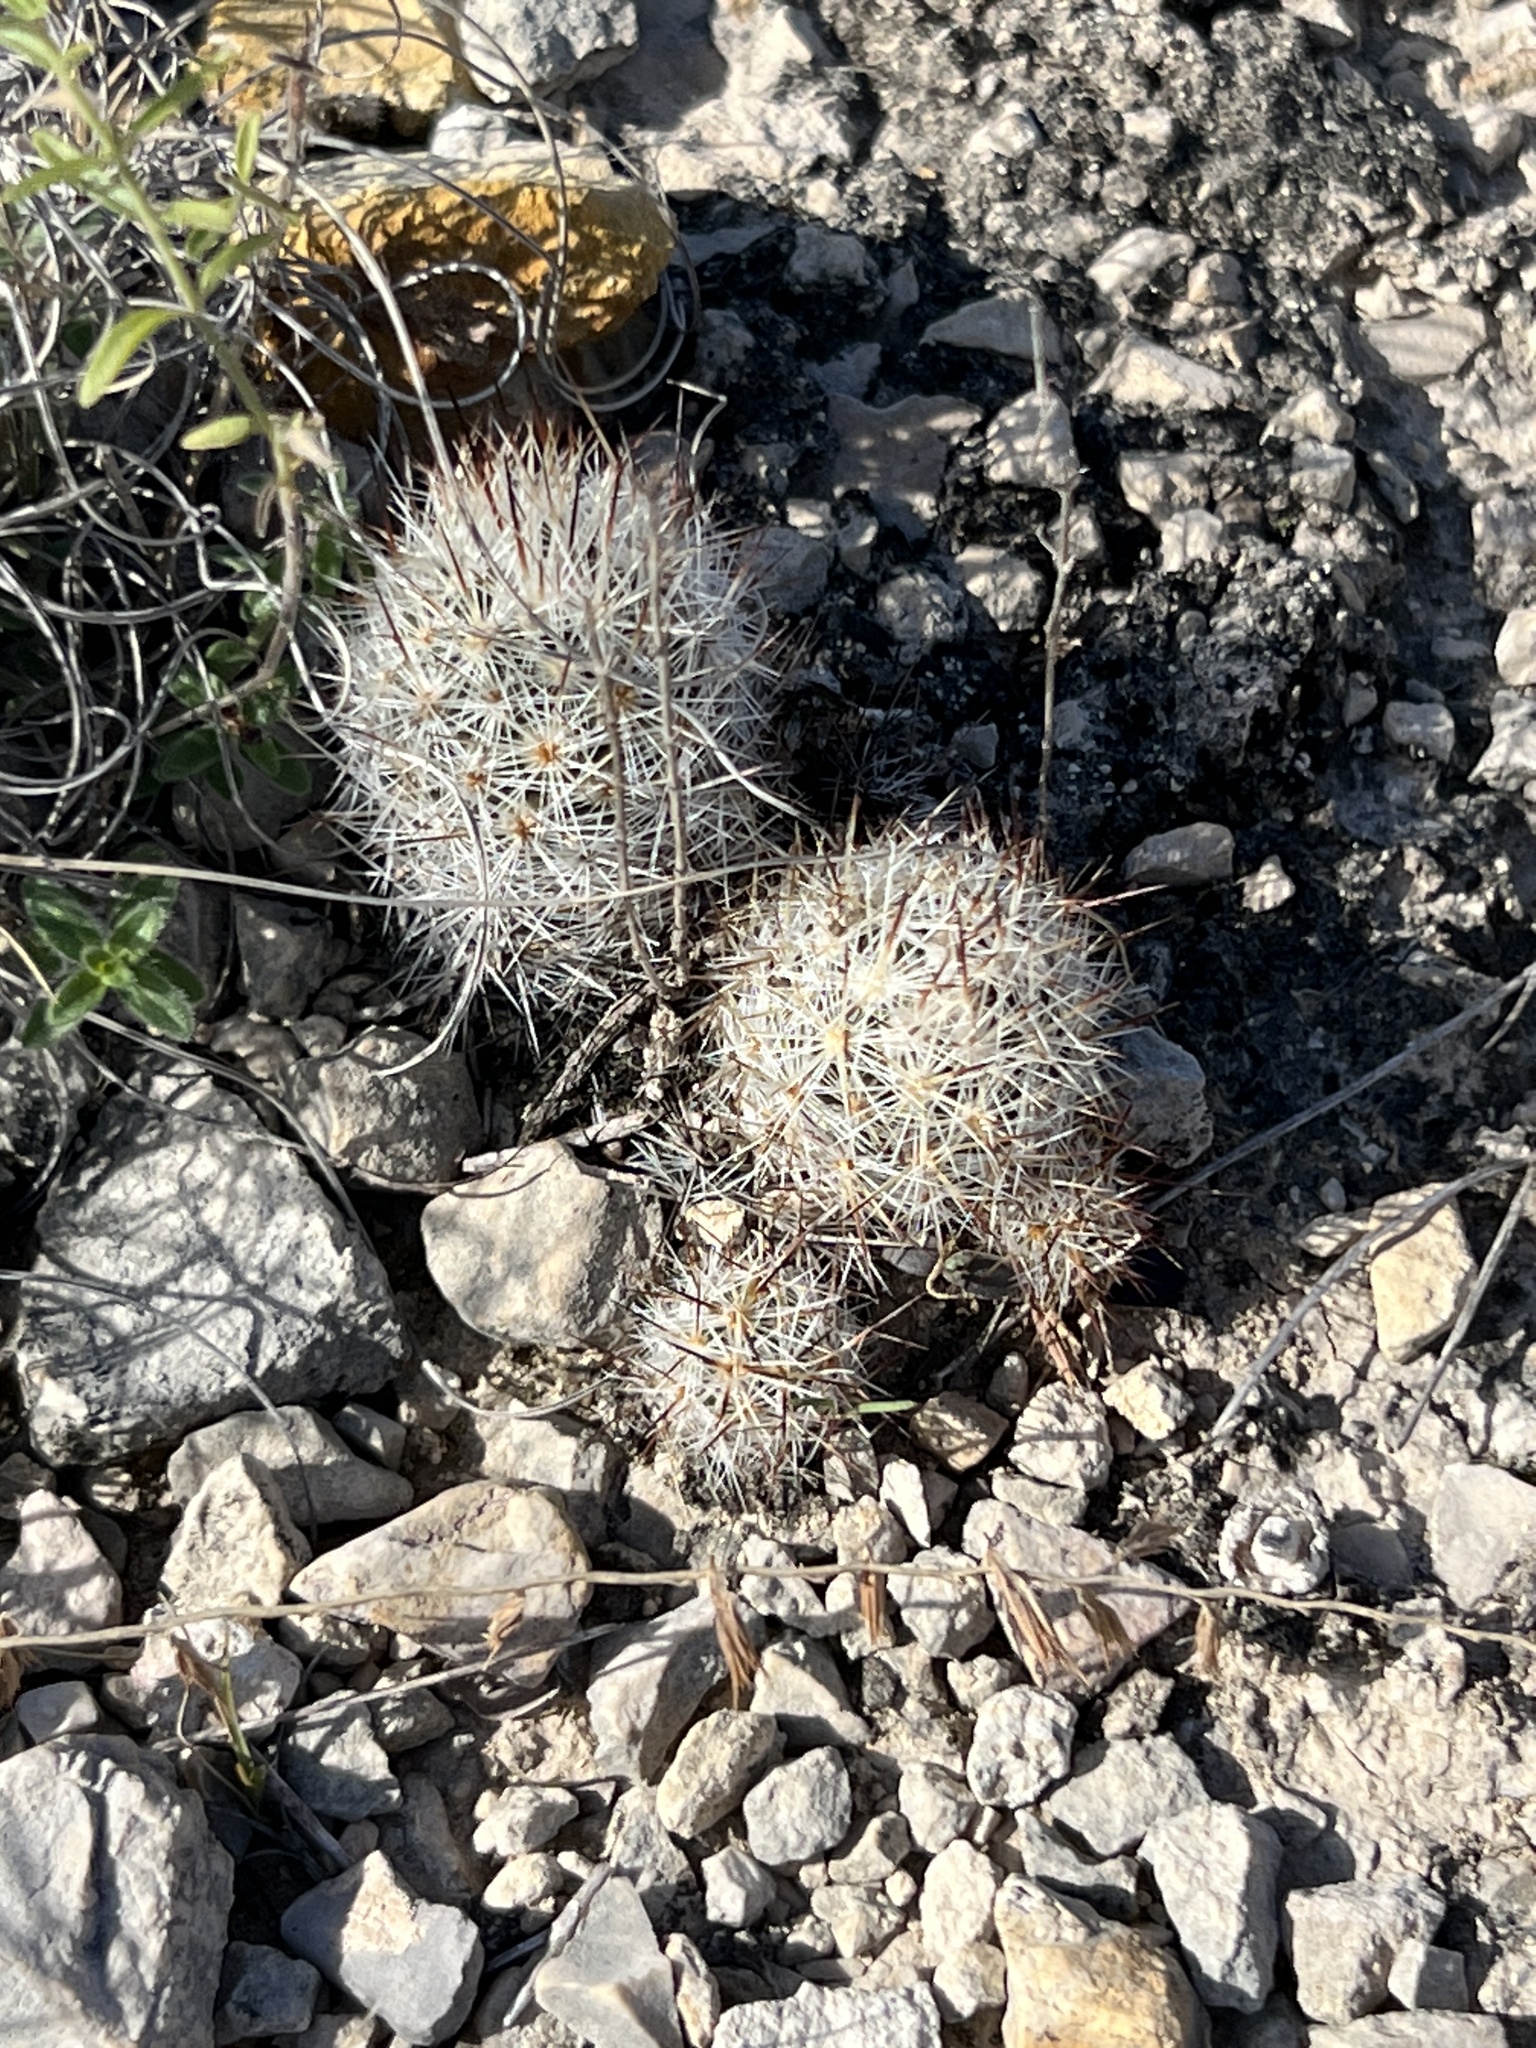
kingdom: Plantae
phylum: Tracheophyta
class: Magnoliopsida
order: Caryophyllales
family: Cactaceae
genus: Pelecyphora
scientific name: Pelecyphora emskoetteriana
